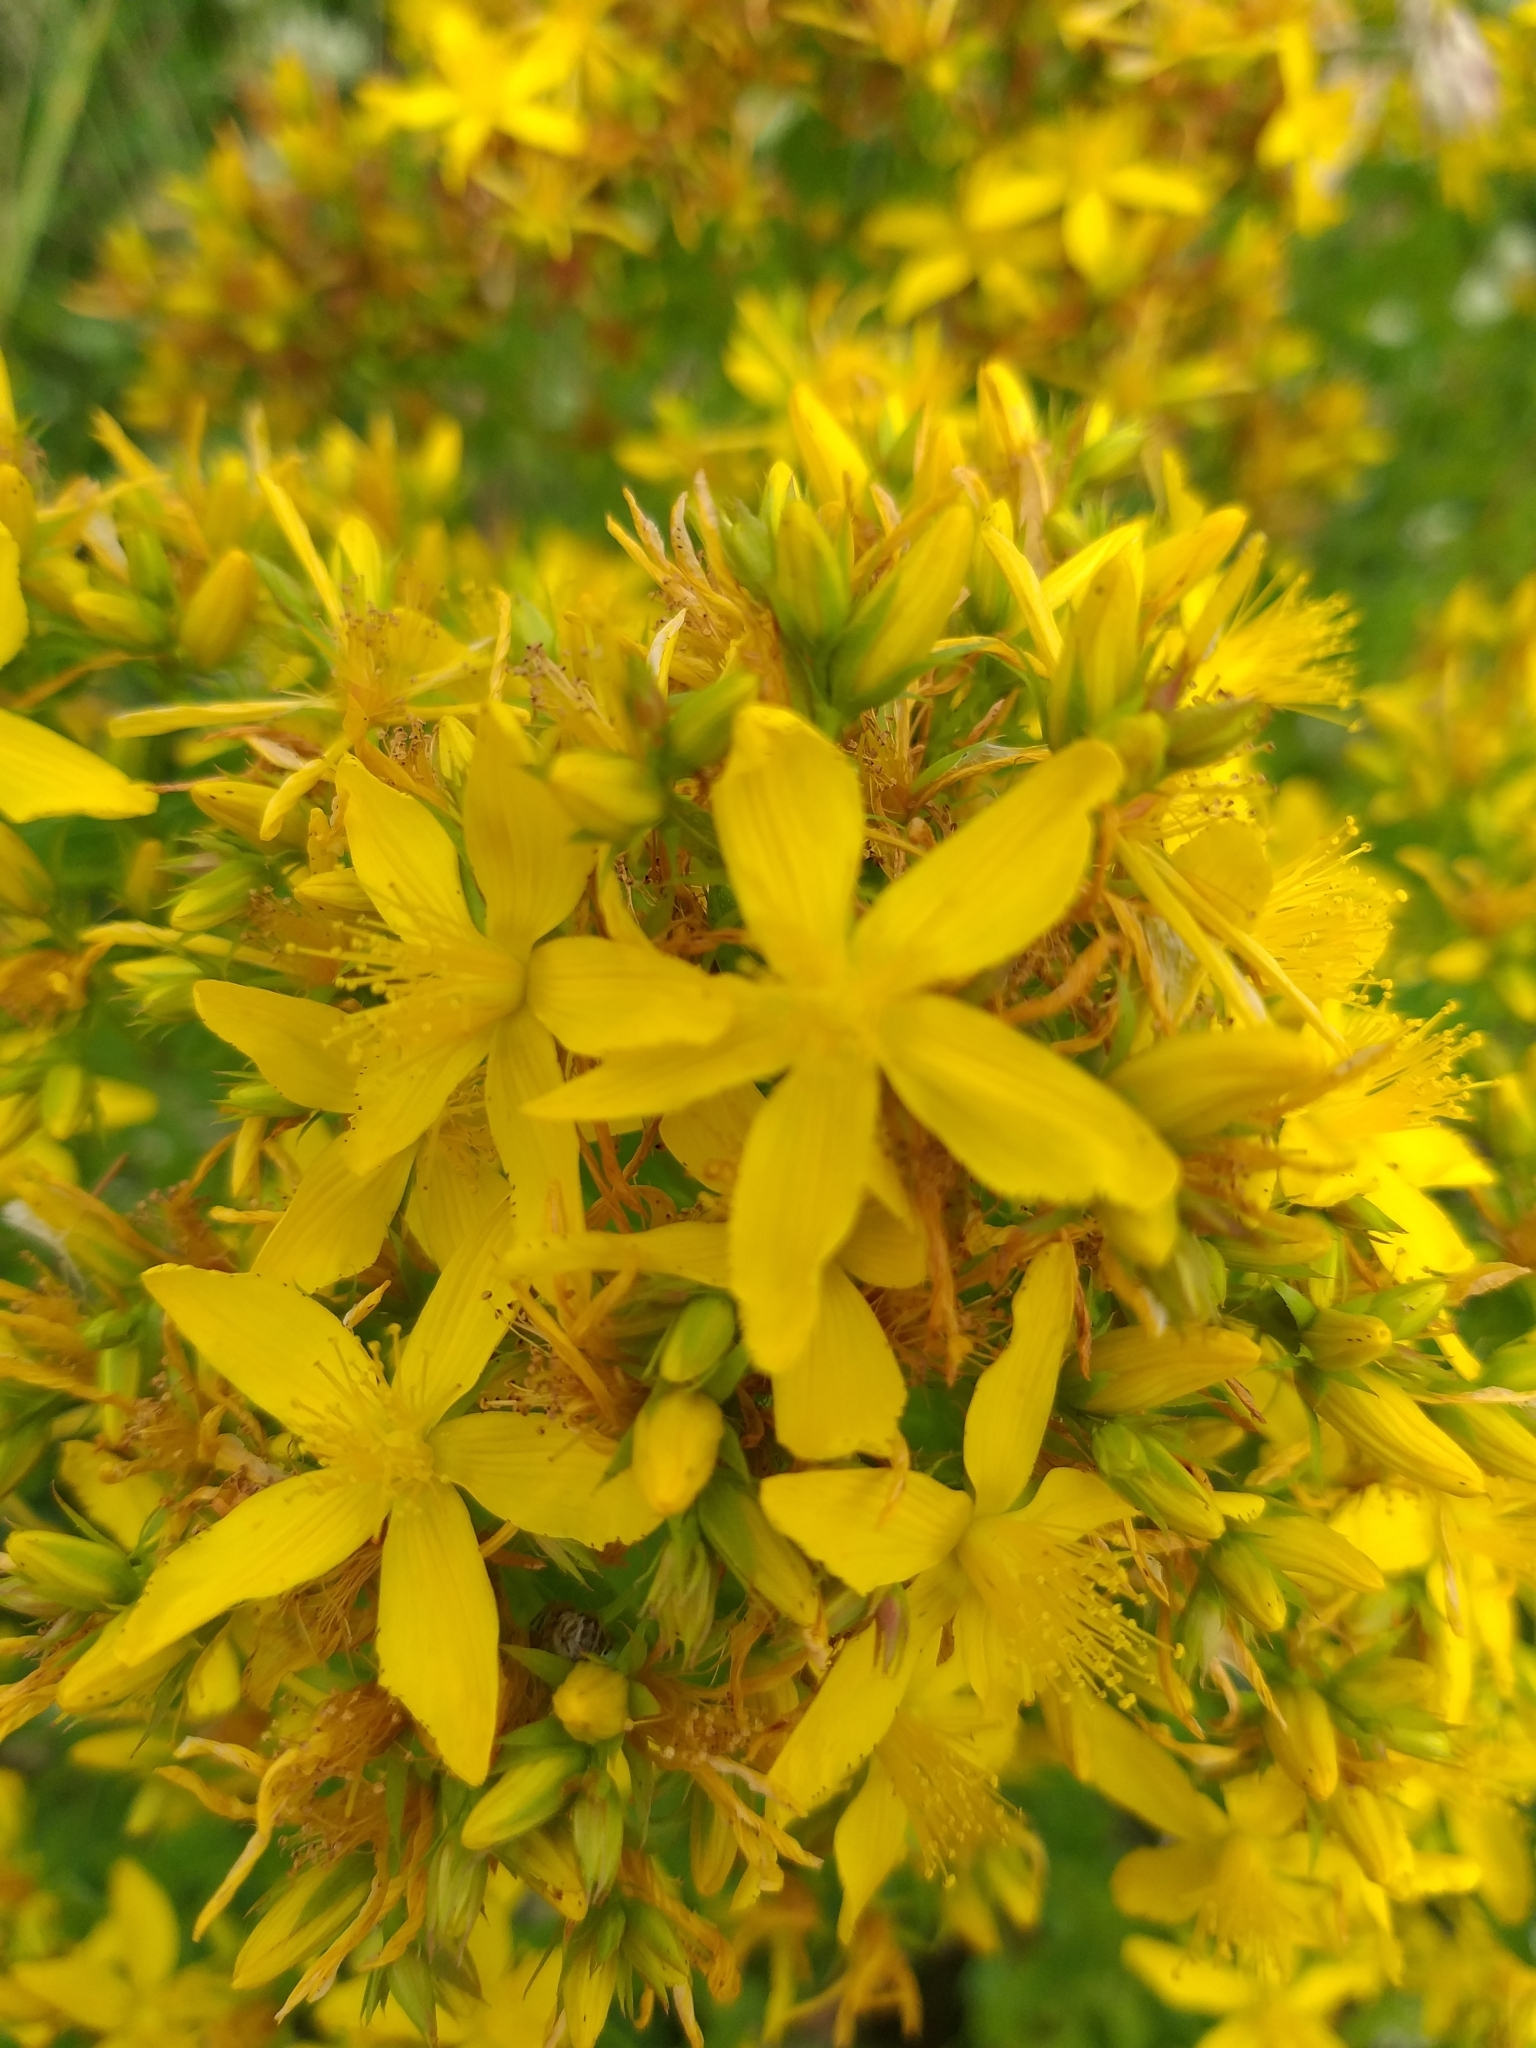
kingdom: Plantae
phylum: Tracheophyta
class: Magnoliopsida
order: Malpighiales
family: Hypericaceae
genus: Hypericum
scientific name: Hypericum perforatum
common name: Common st. johnswort
